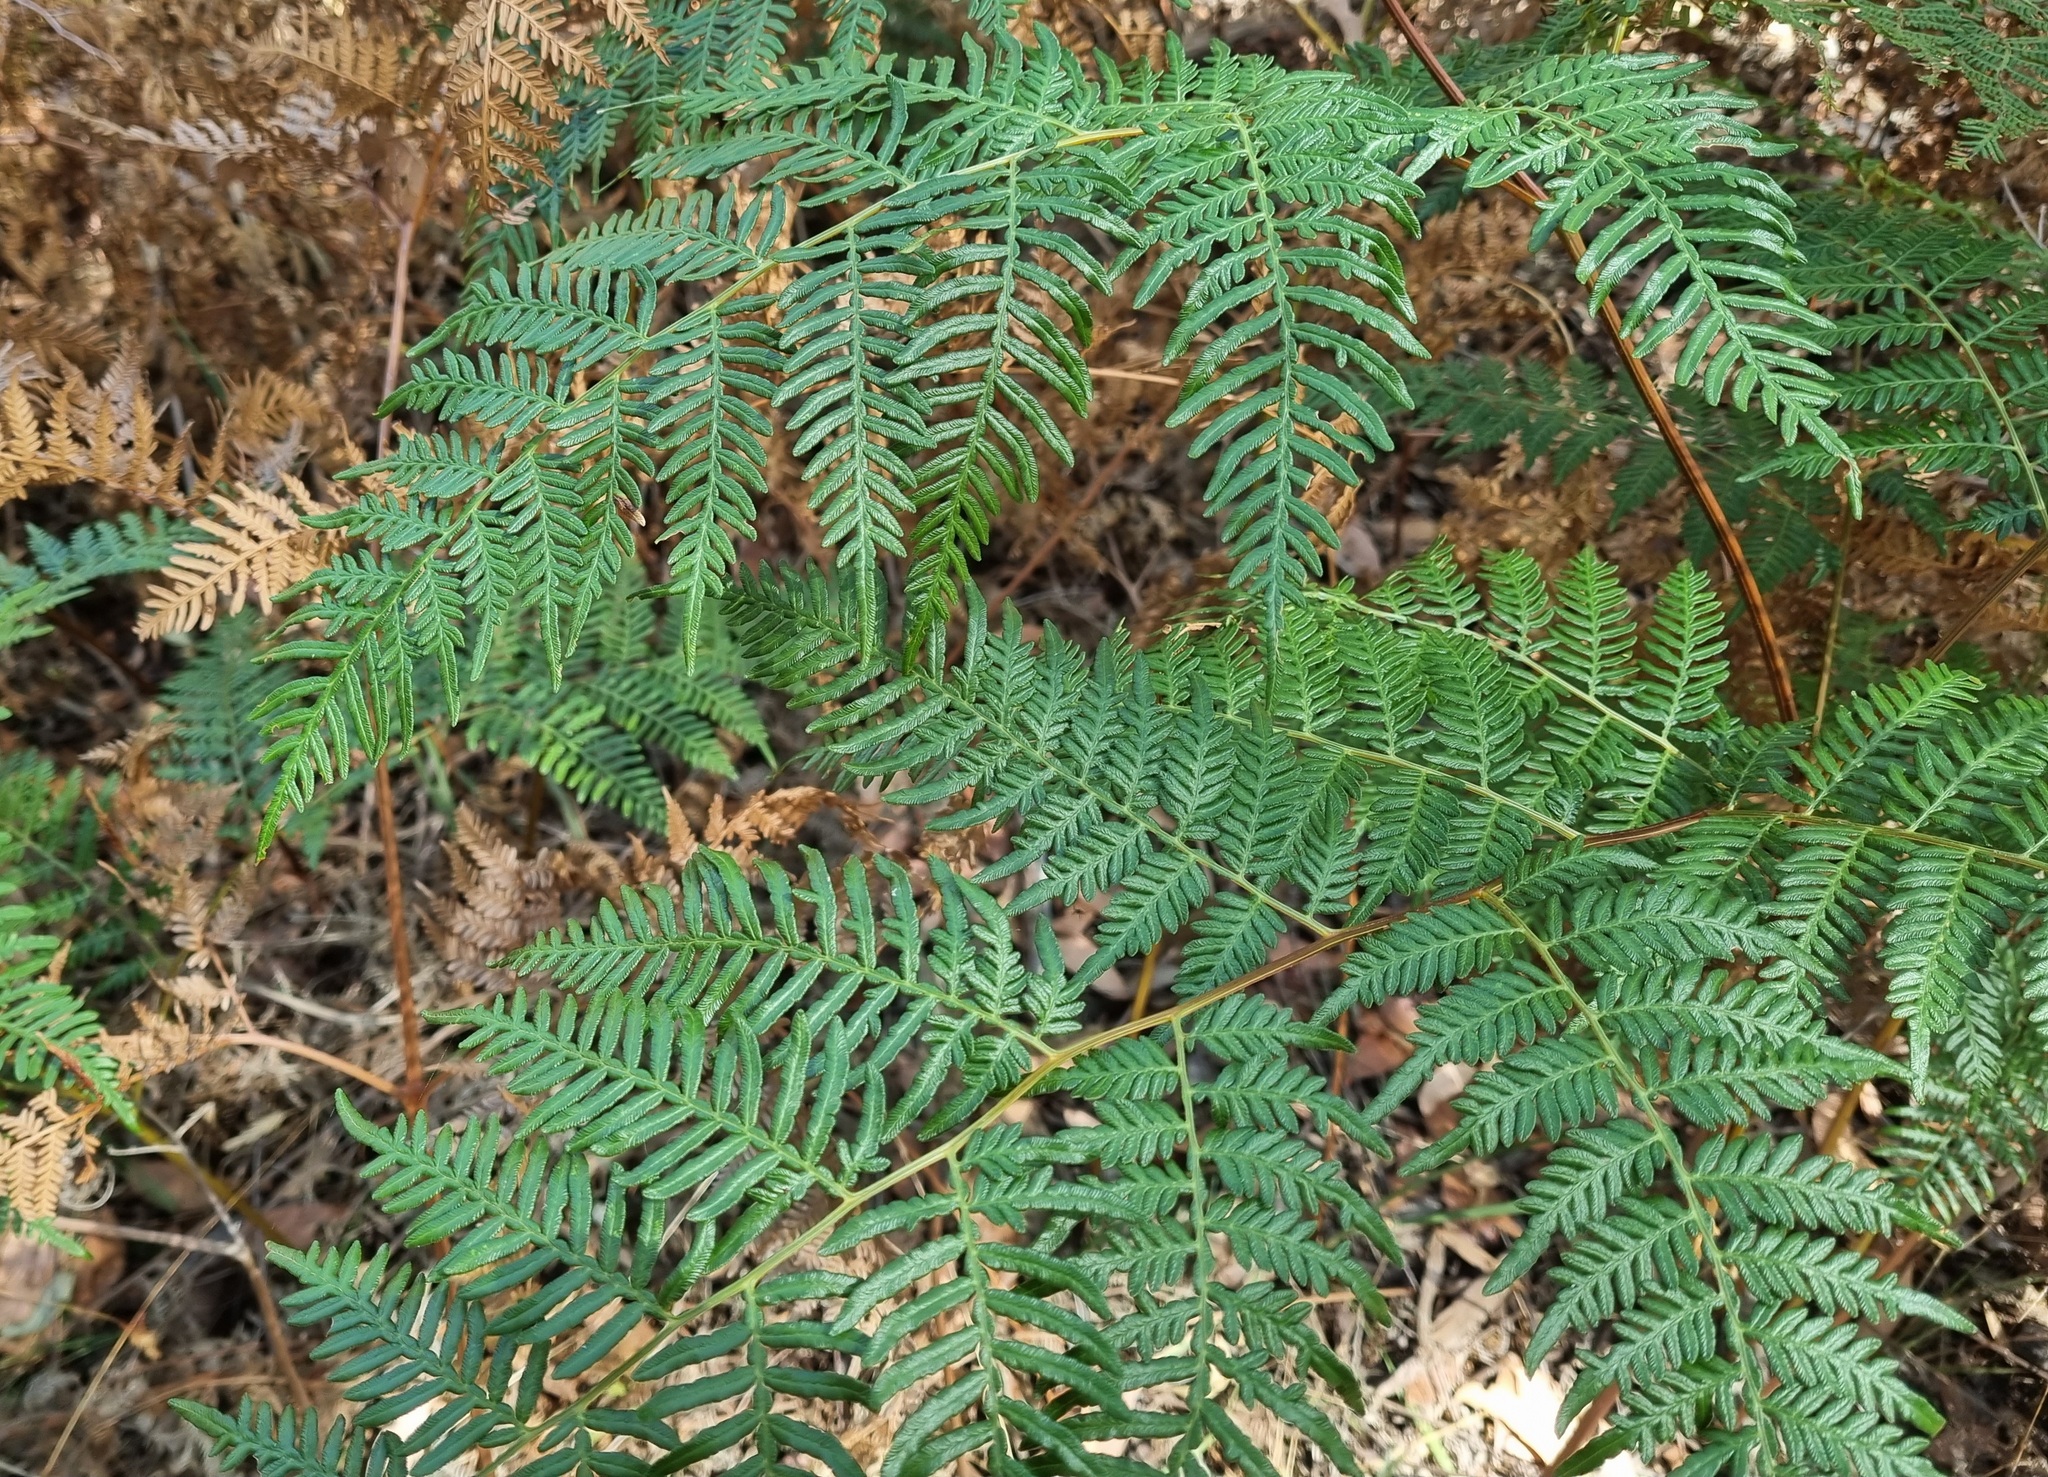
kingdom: Plantae
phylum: Tracheophyta
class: Polypodiopsida
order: Polypodiales
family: Dennstaedtiaceae
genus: Pteridium
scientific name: Pteridium esculentum
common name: Bracken fern
